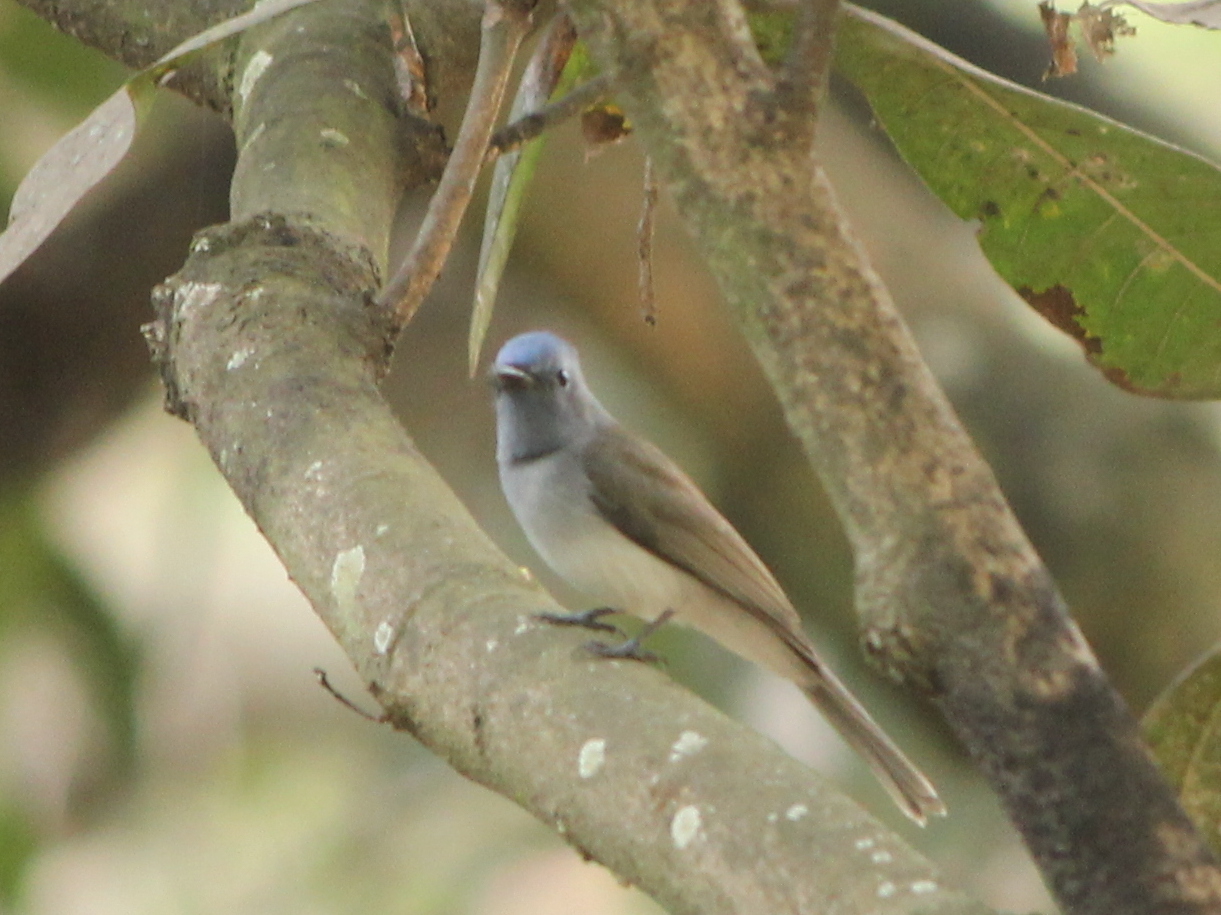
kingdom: Animalia
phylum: Chordata
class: Aves
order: Passeriformes
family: Monarchidae
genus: Hypothymis
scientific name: Hypothymis azurea
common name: Black-naped monarch
